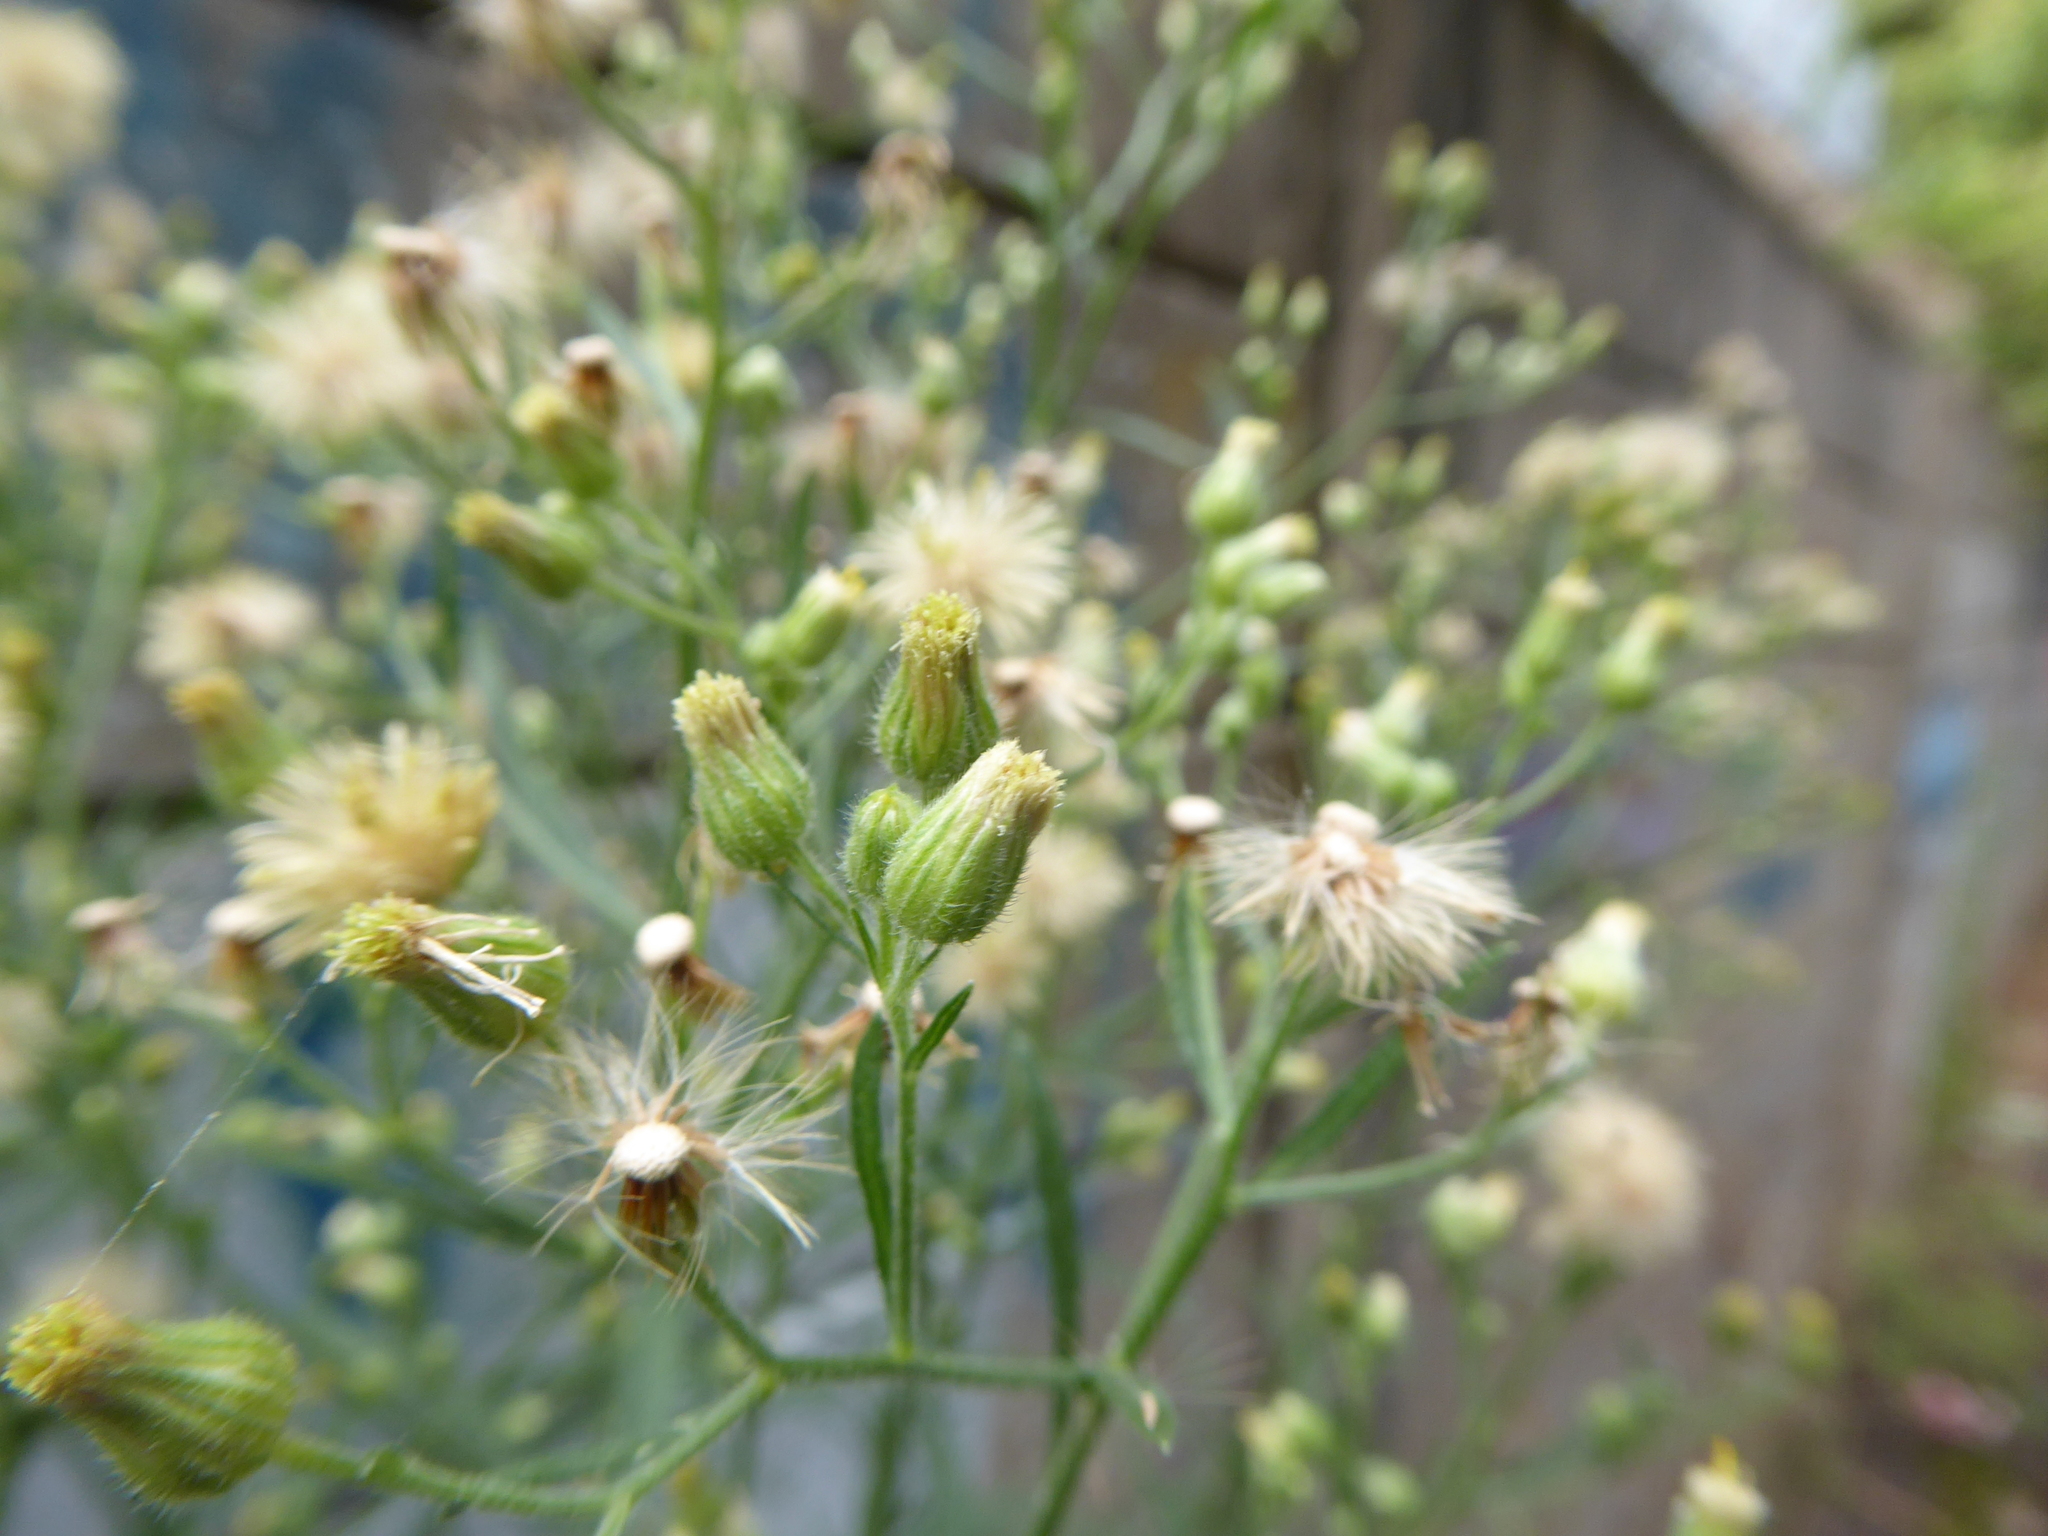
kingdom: Plantae
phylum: Tracheophyta
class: Magnoliopsida
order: Asterales
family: Asteraceae
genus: Erigeron
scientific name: Erigeron sumatrensis
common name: Daisy
